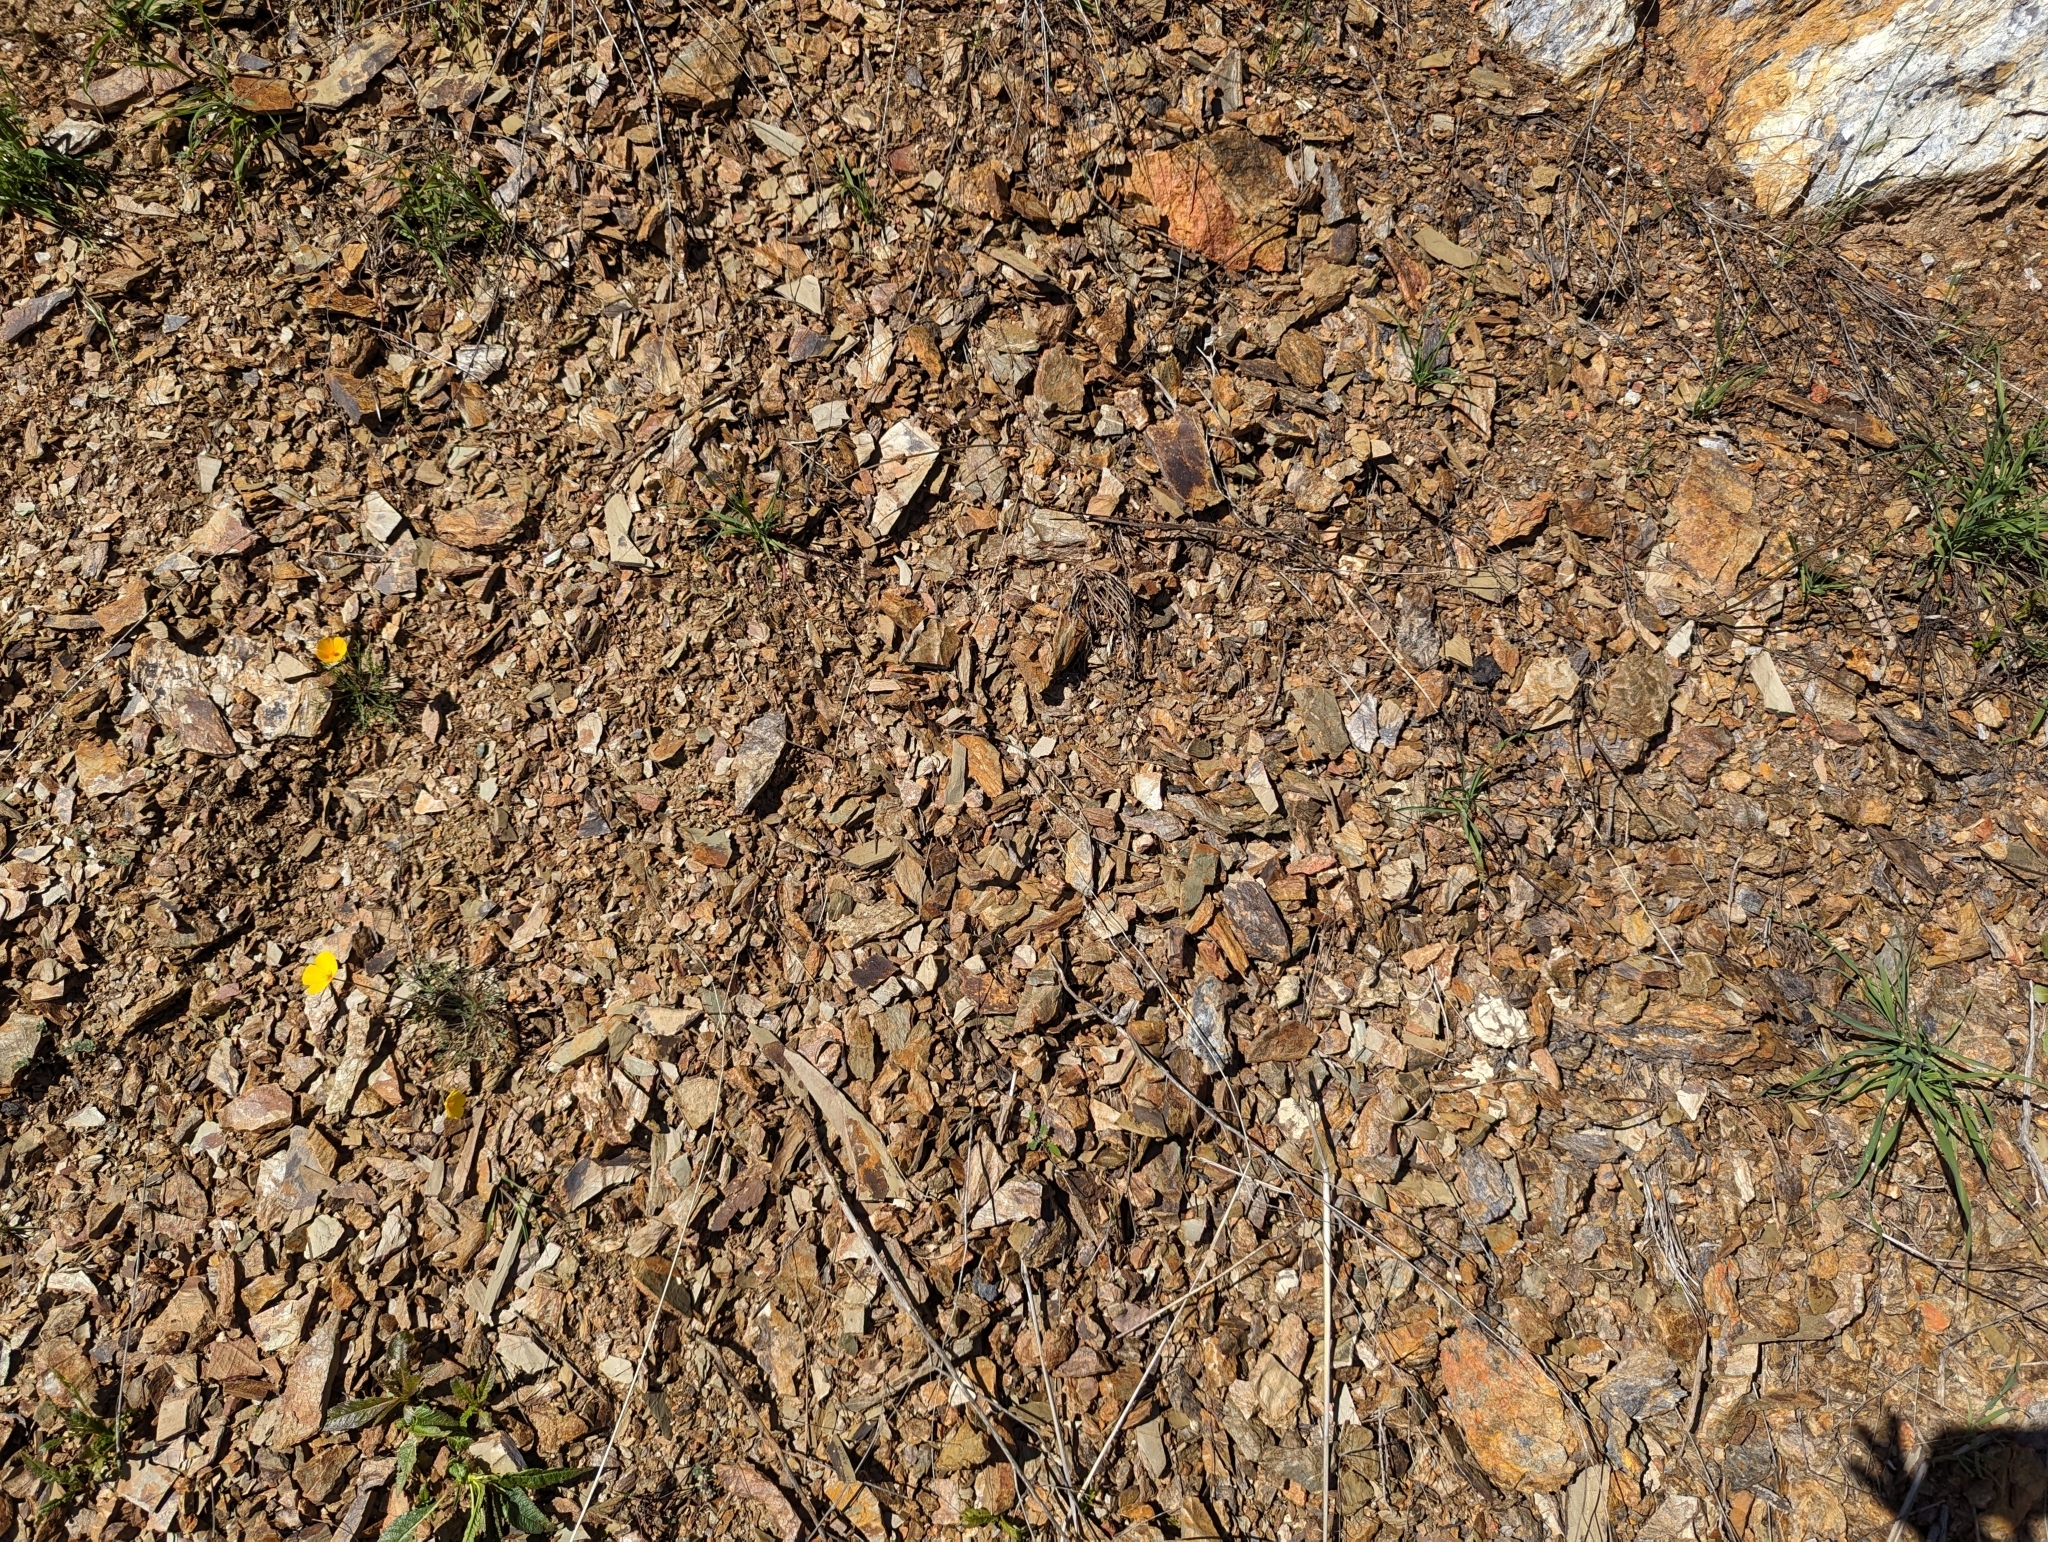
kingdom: Plantae
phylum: Tracheophyta
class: Magnoliopsida
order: Ranunculales
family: Papaveraceae
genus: Eschscholzia
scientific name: Eschscholzia caespitosa
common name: Tufted california-poppy
